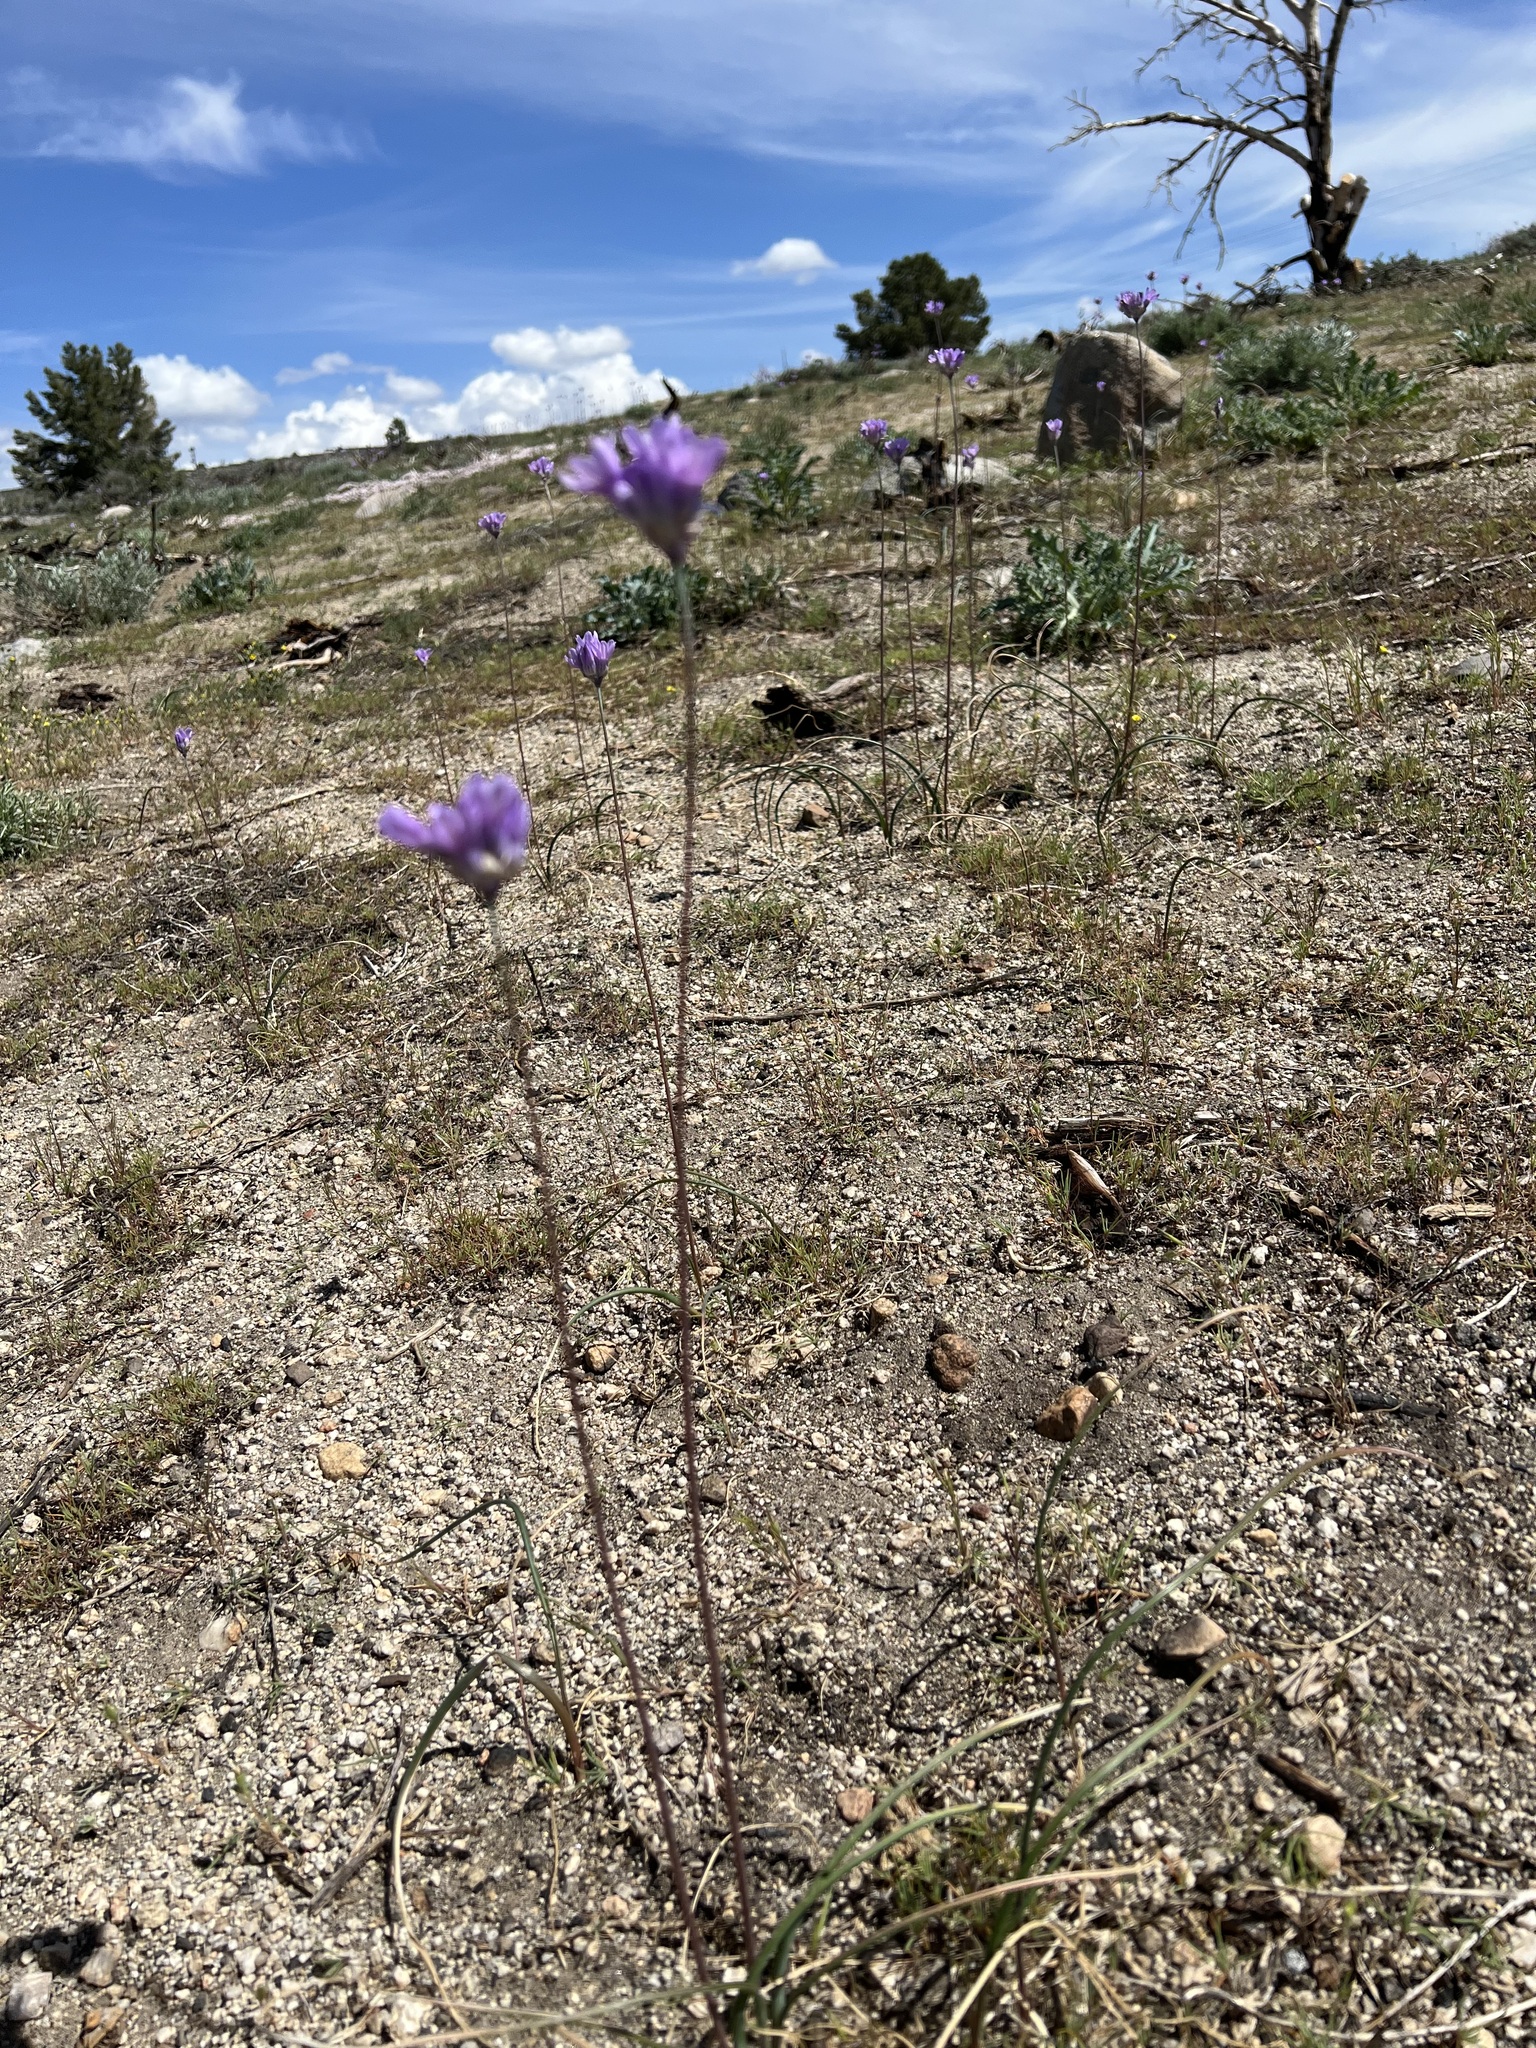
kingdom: Plantae
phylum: Tracheophyta
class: Liliopsida
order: Asparagales
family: Asparagaceae
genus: Dipterostemon
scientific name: Dipterostemon capitatus
